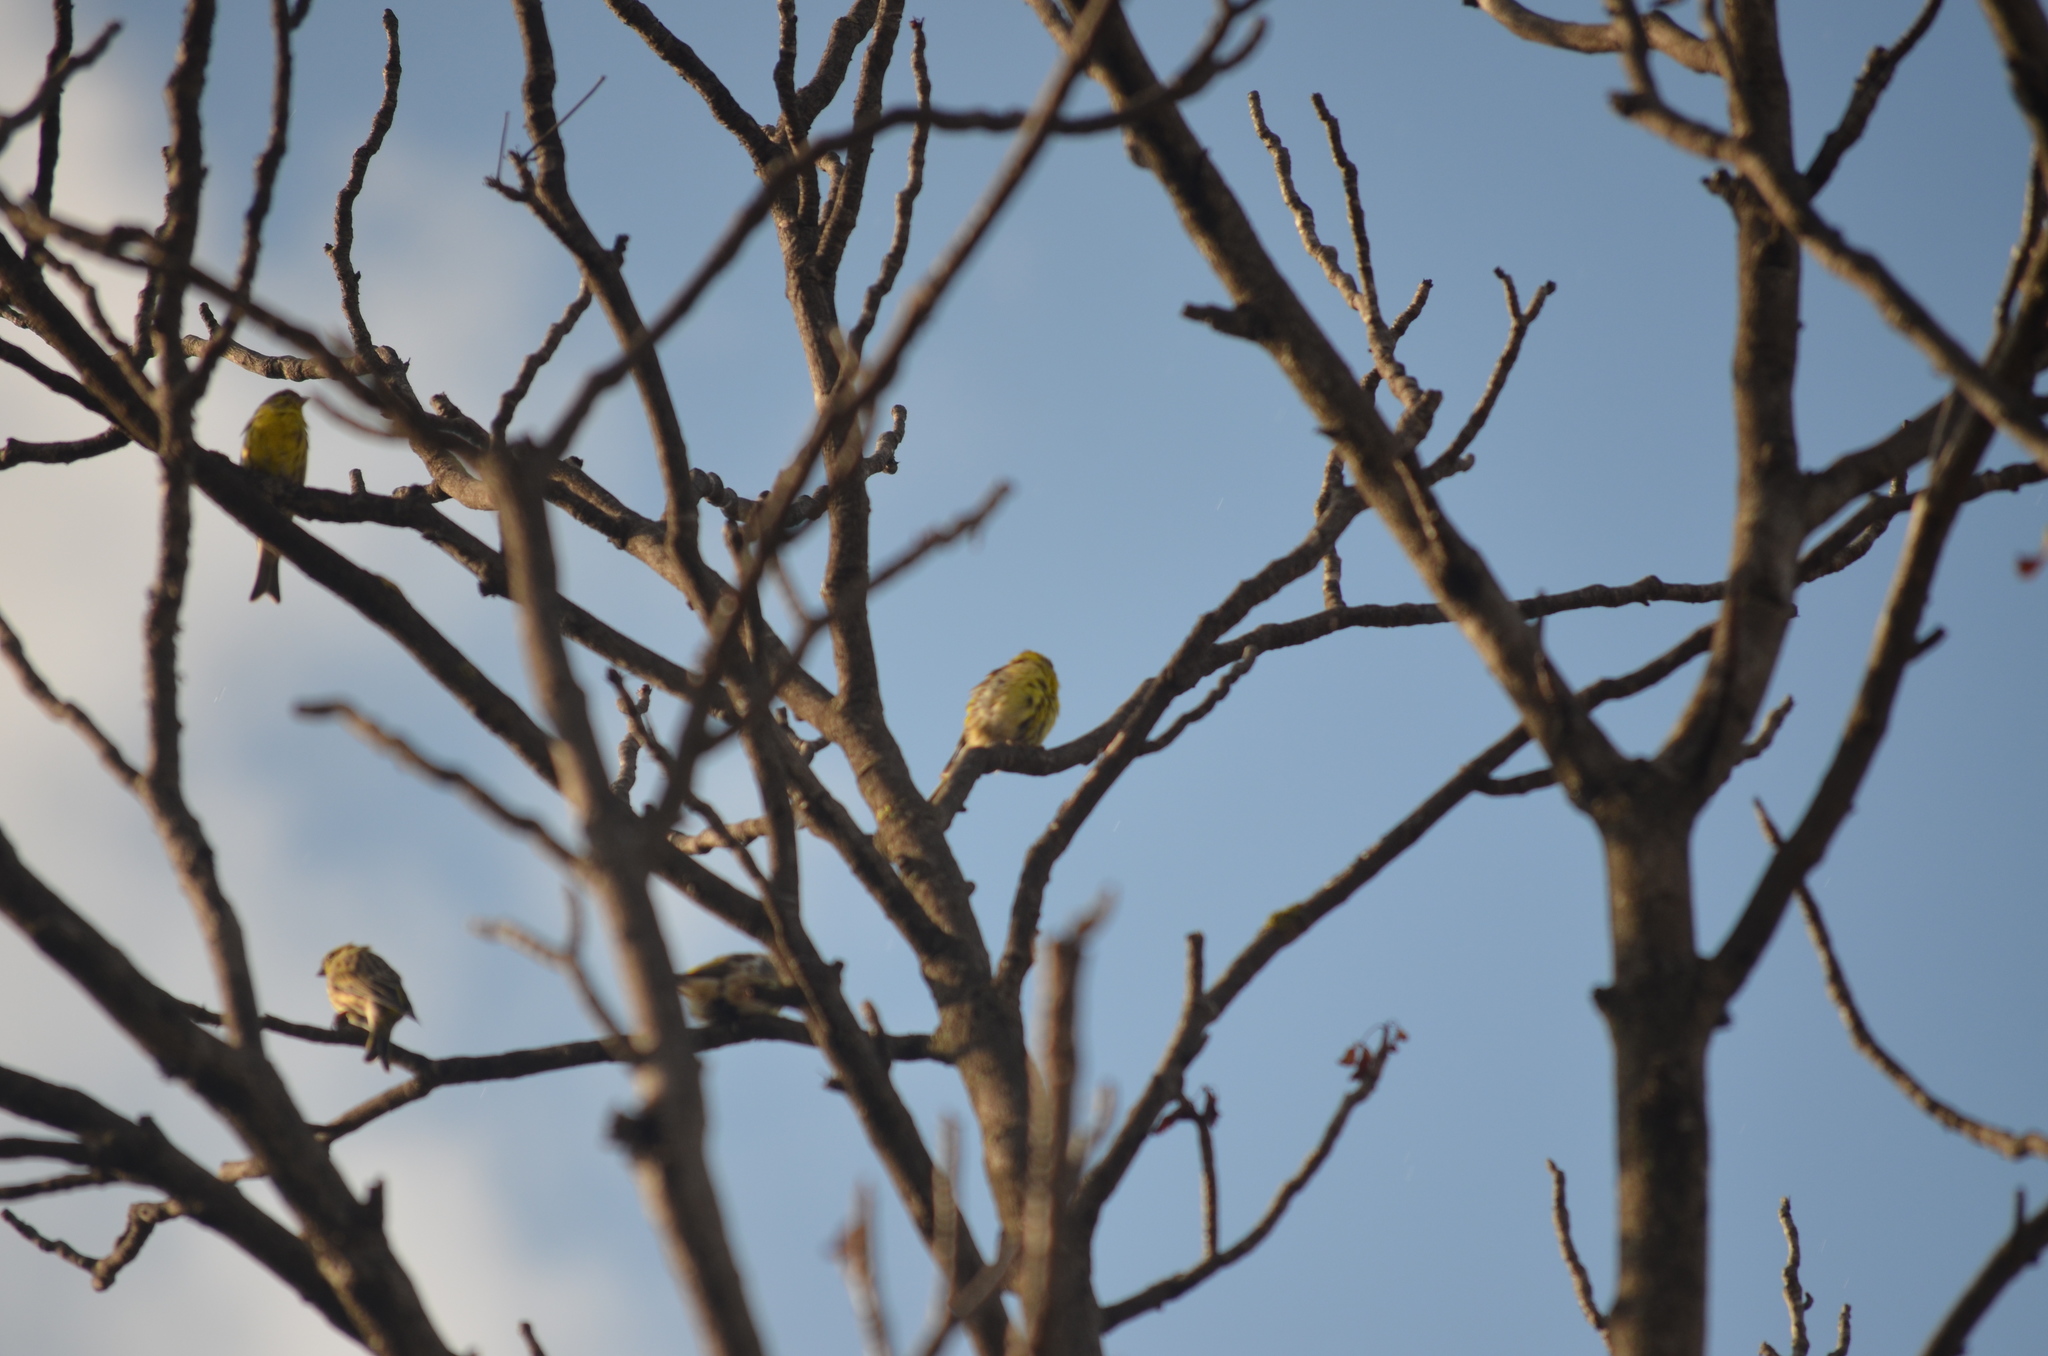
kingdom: Animalia
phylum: Chordata
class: Aves
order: Passeriformes
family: Fringillidae
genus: Serinus
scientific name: Serinus serinus
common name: European serin
